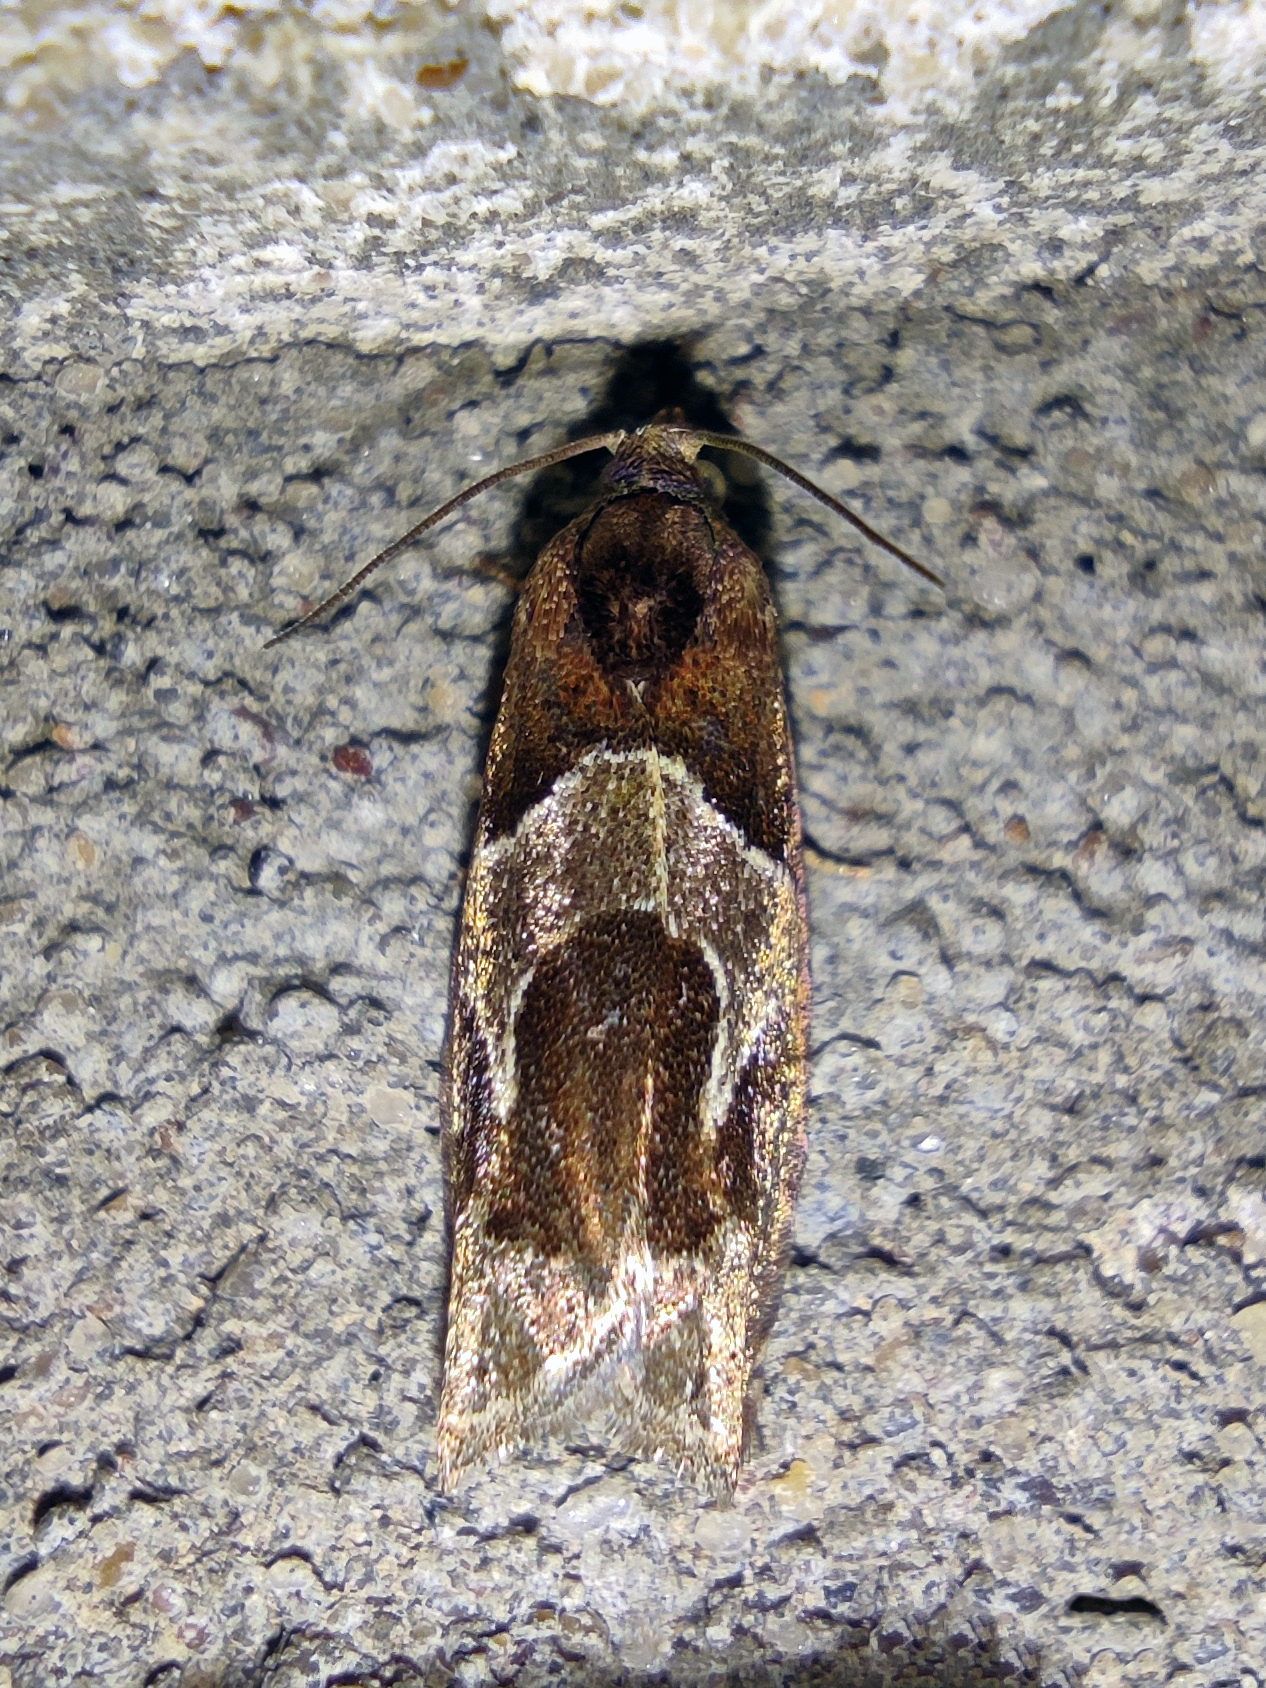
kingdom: Animalia
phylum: Arthropoda
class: Insecta
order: Lepidoptera
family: Tortricidae
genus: Epiblema
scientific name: Epiblema foenella
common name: White-foot bell
